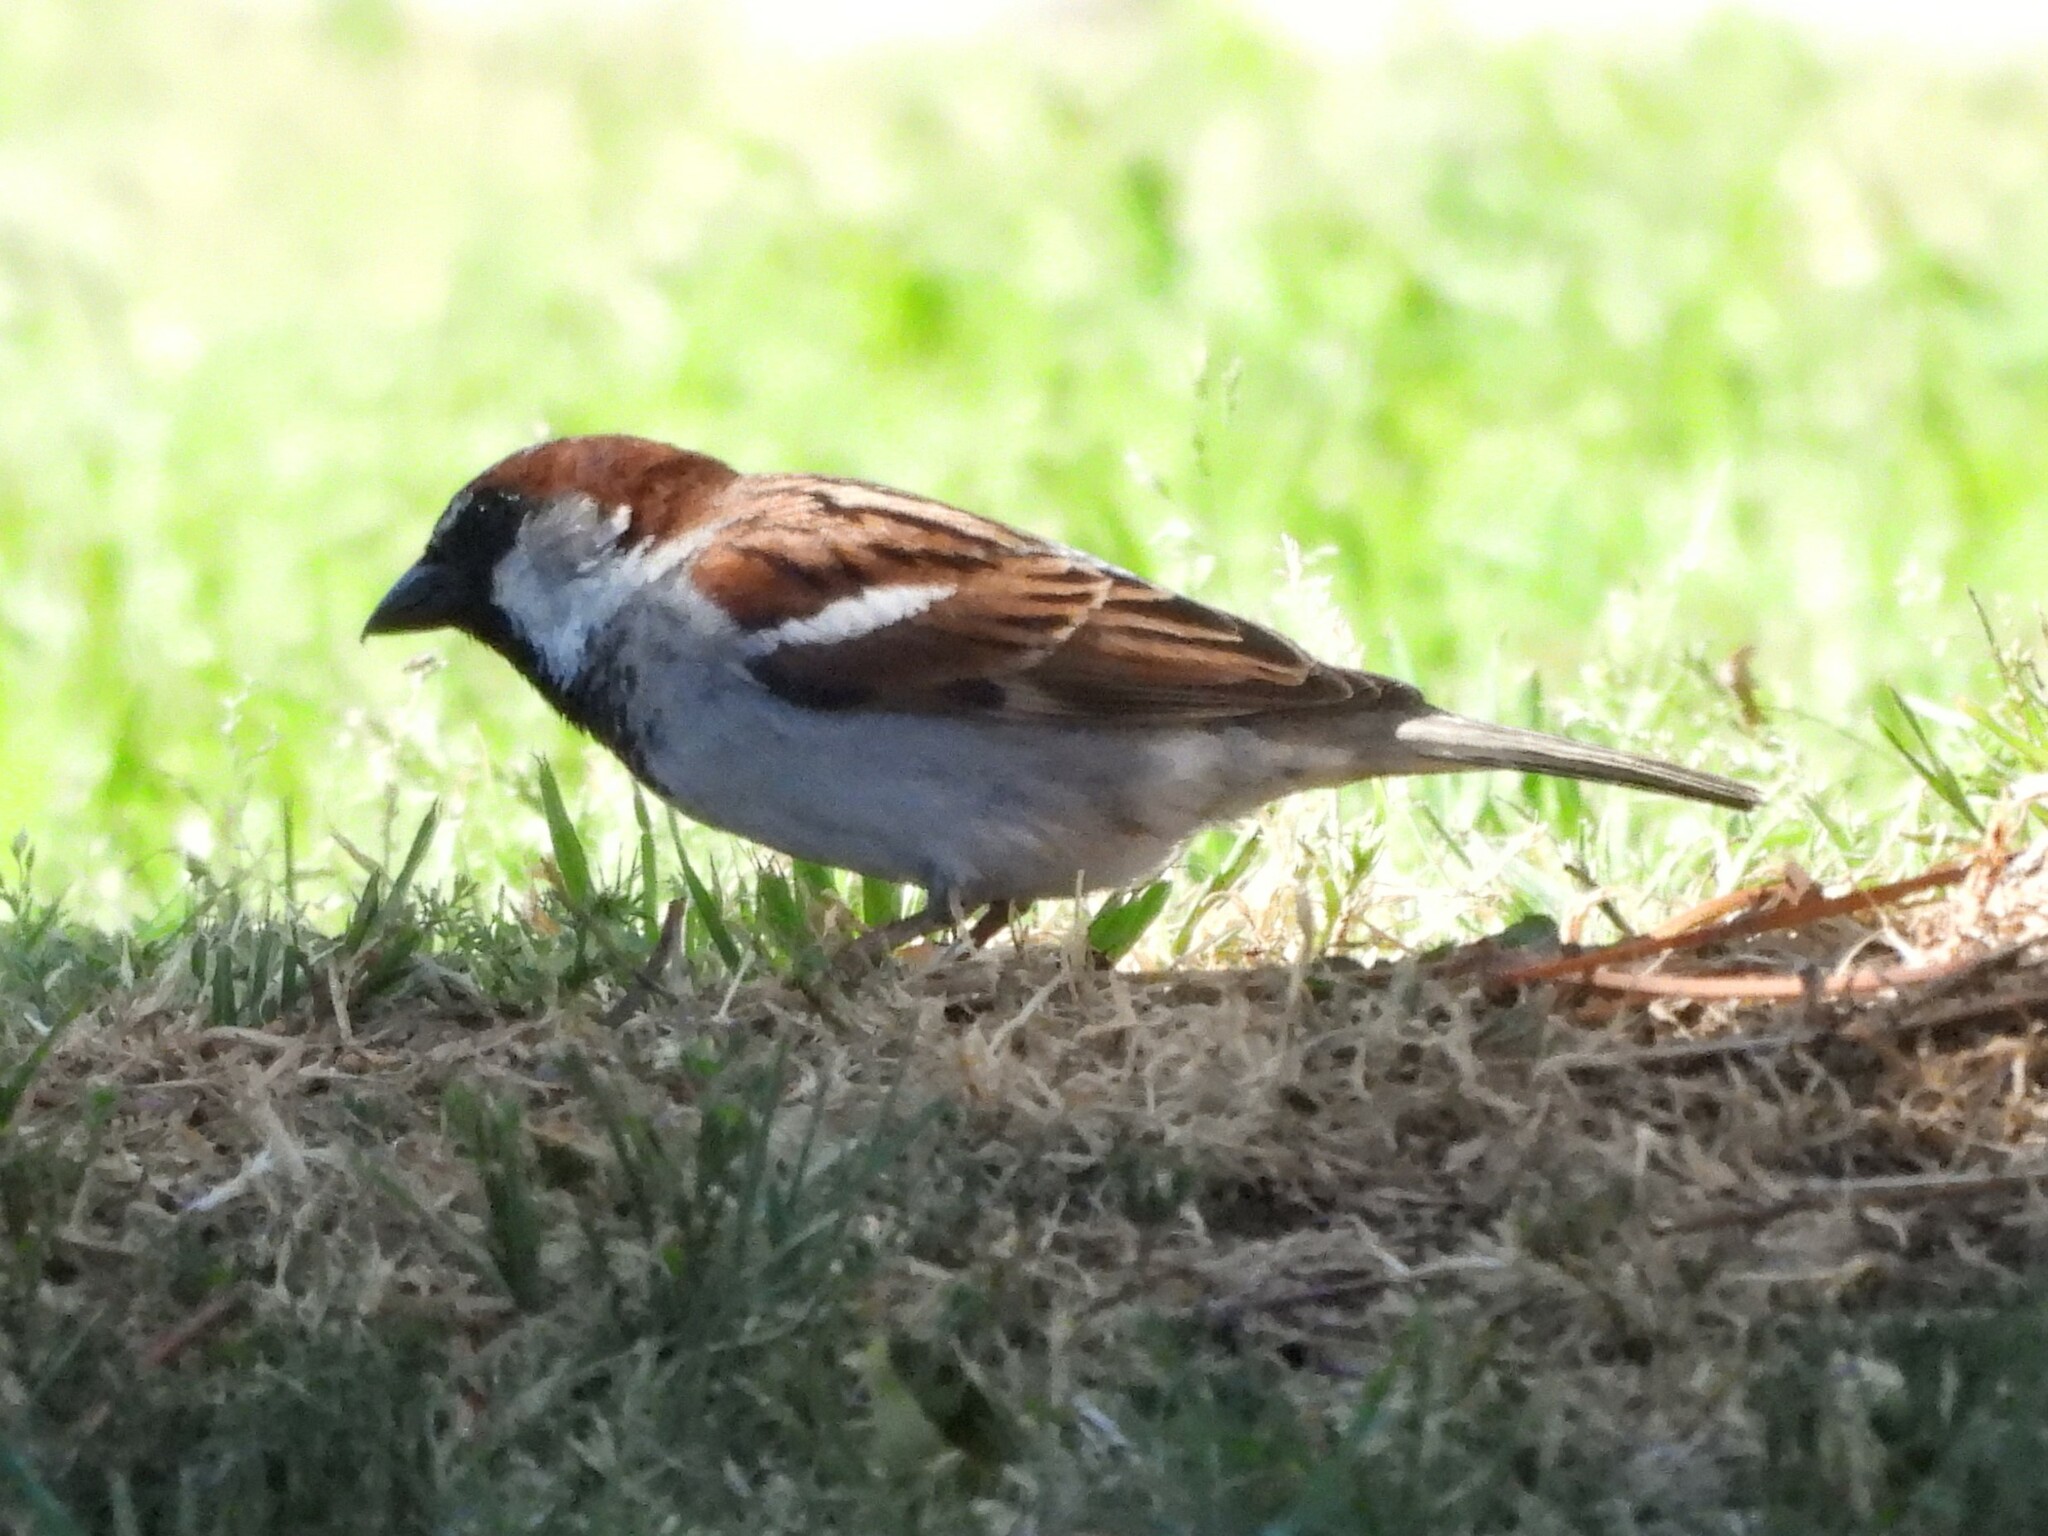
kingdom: Animalia
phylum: Chordata
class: Aves
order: Passeriformes
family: Passeridae
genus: Passer
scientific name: Passer domesticus
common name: House sparrow
